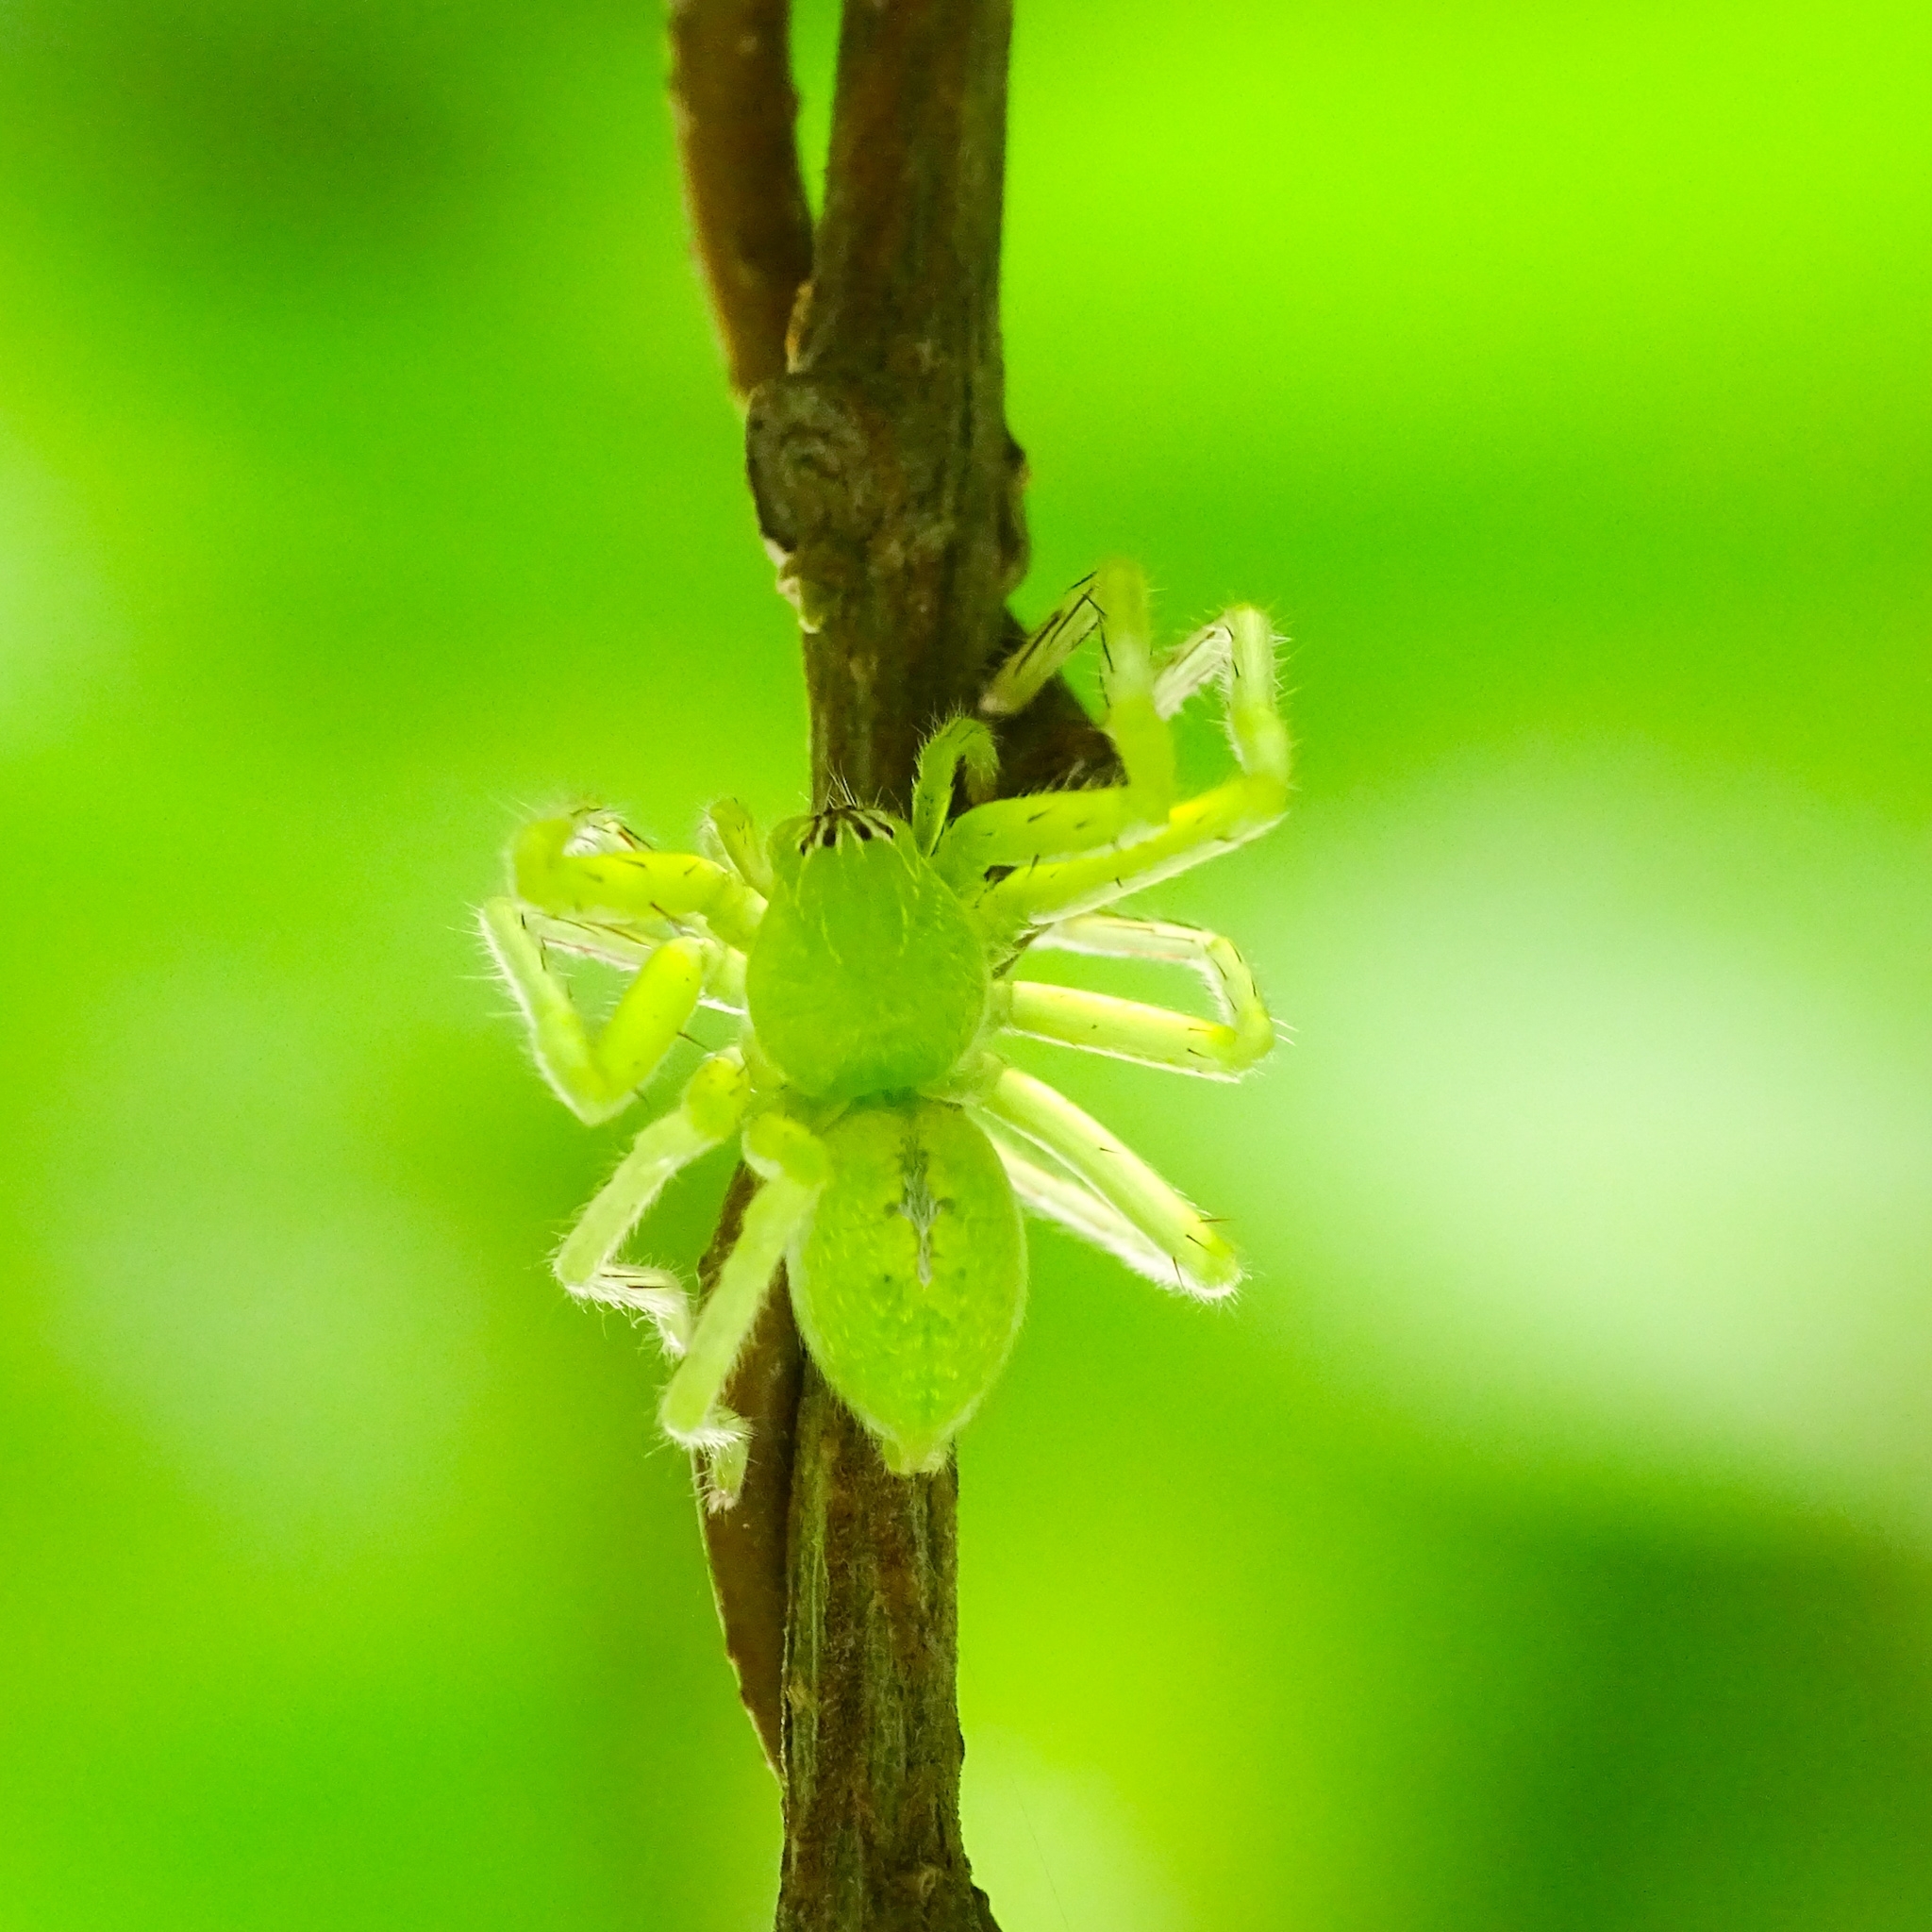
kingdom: Animalia
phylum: Arthropoda
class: Arachnida
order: Araneae
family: Sparassidae
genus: Olios
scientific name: Olios milleti
